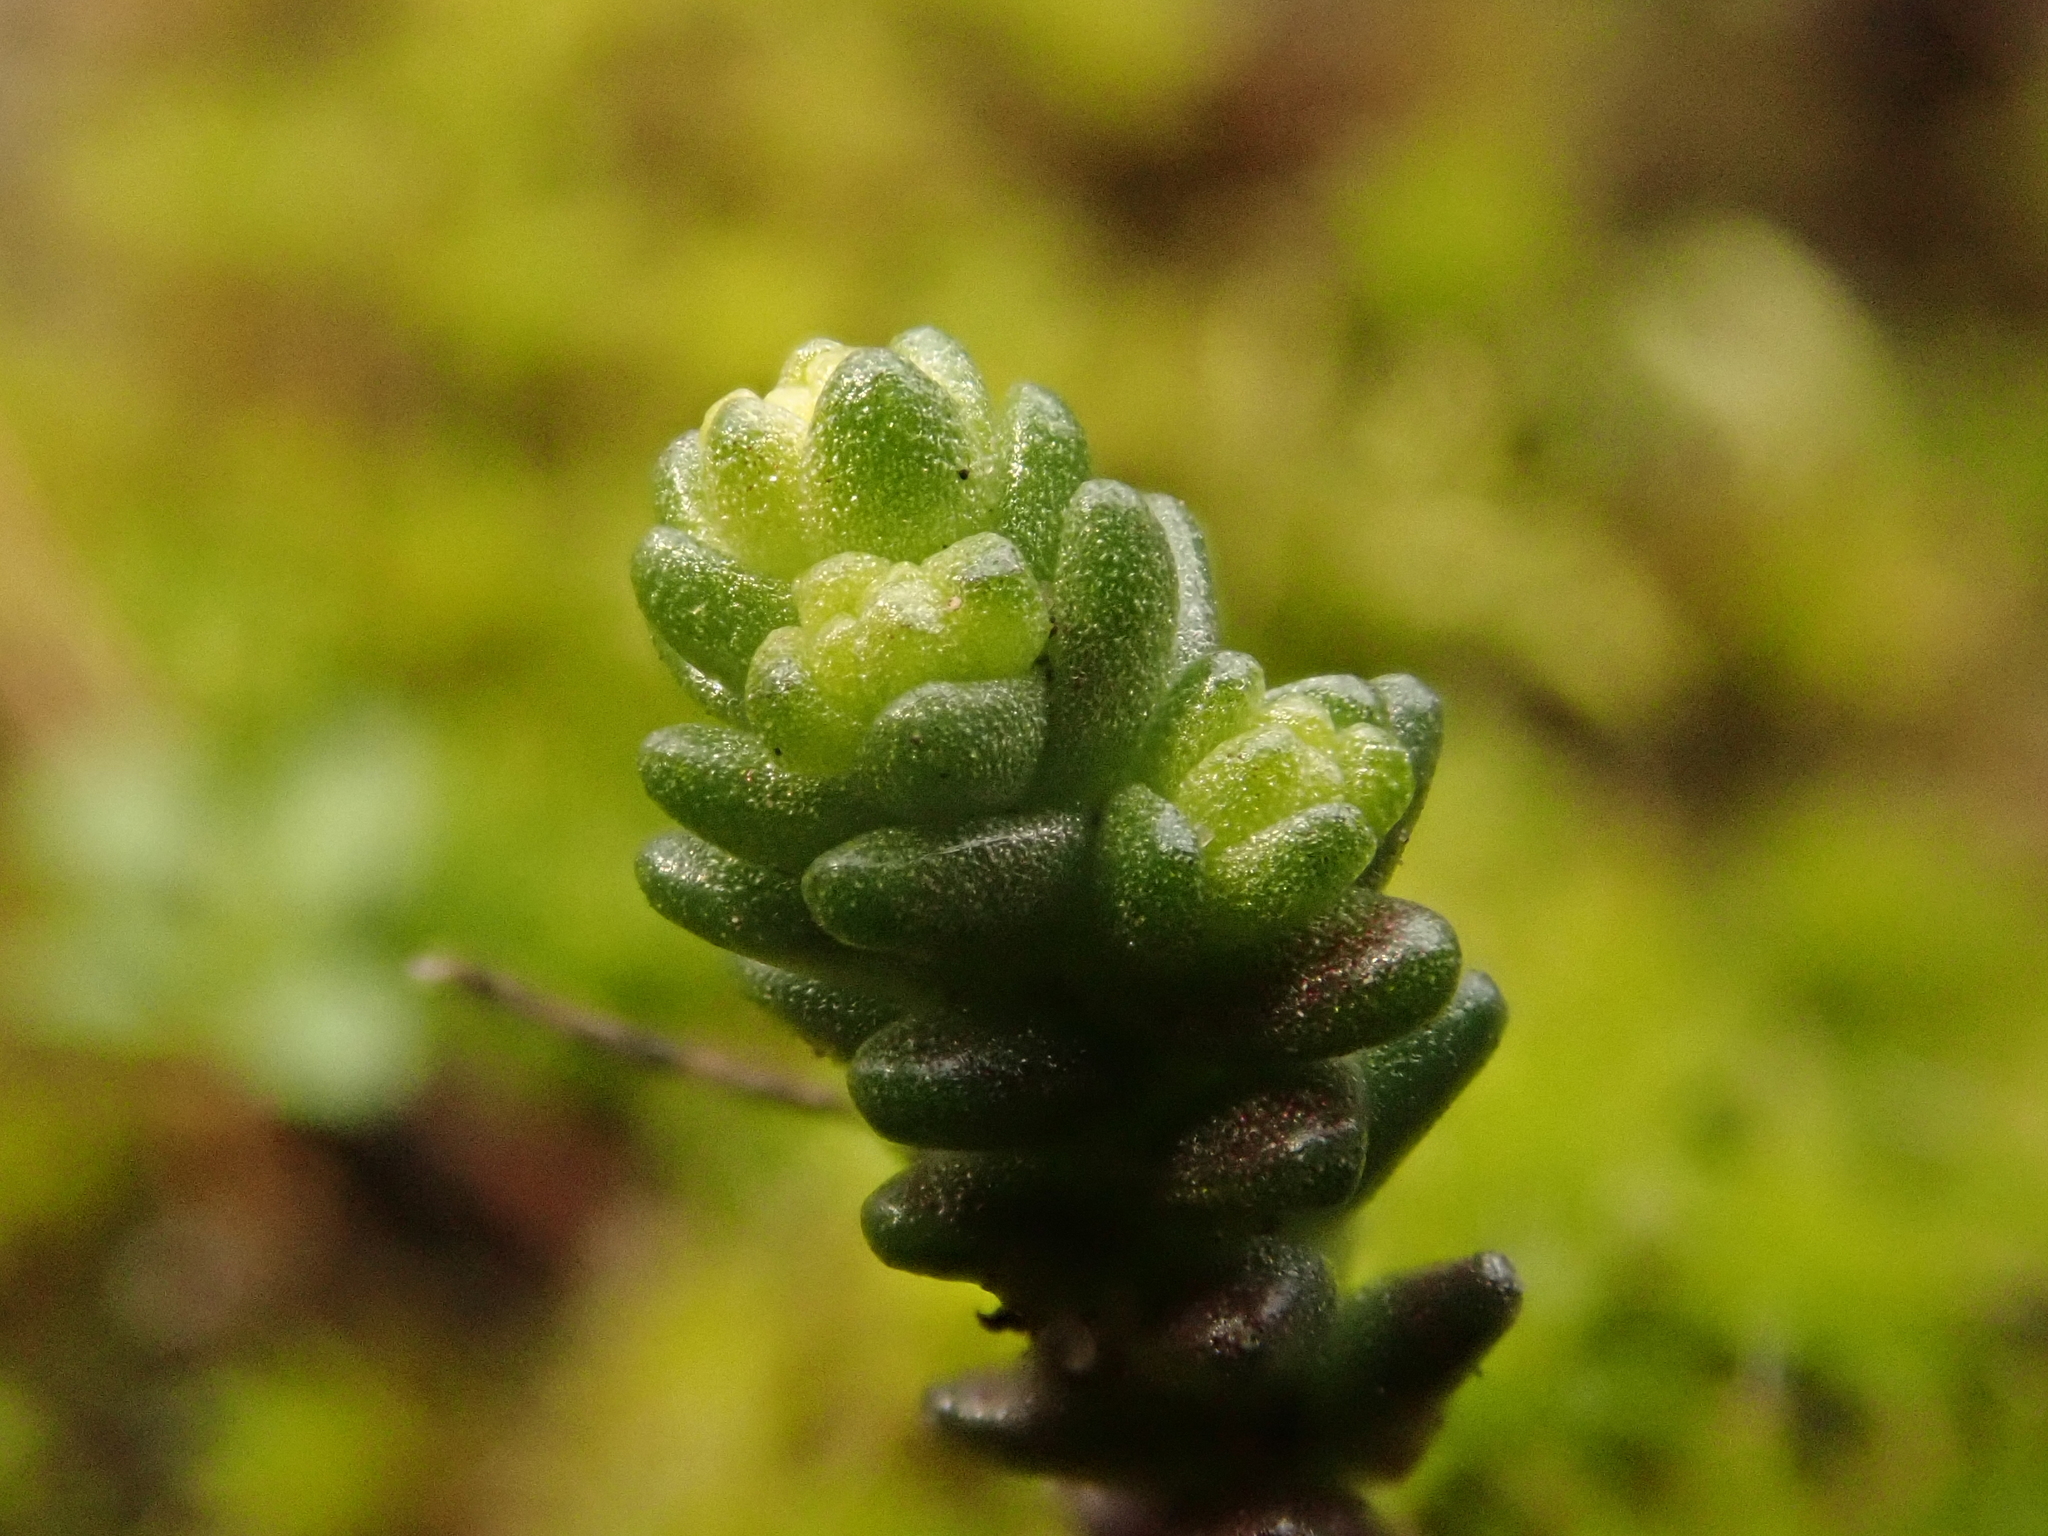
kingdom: Plantae
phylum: Tracheophyta
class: Magnoliopsida
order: Saxifragales
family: Crassulaceae
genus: Sedum
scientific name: Sedum acre
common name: Biting stonecrop
